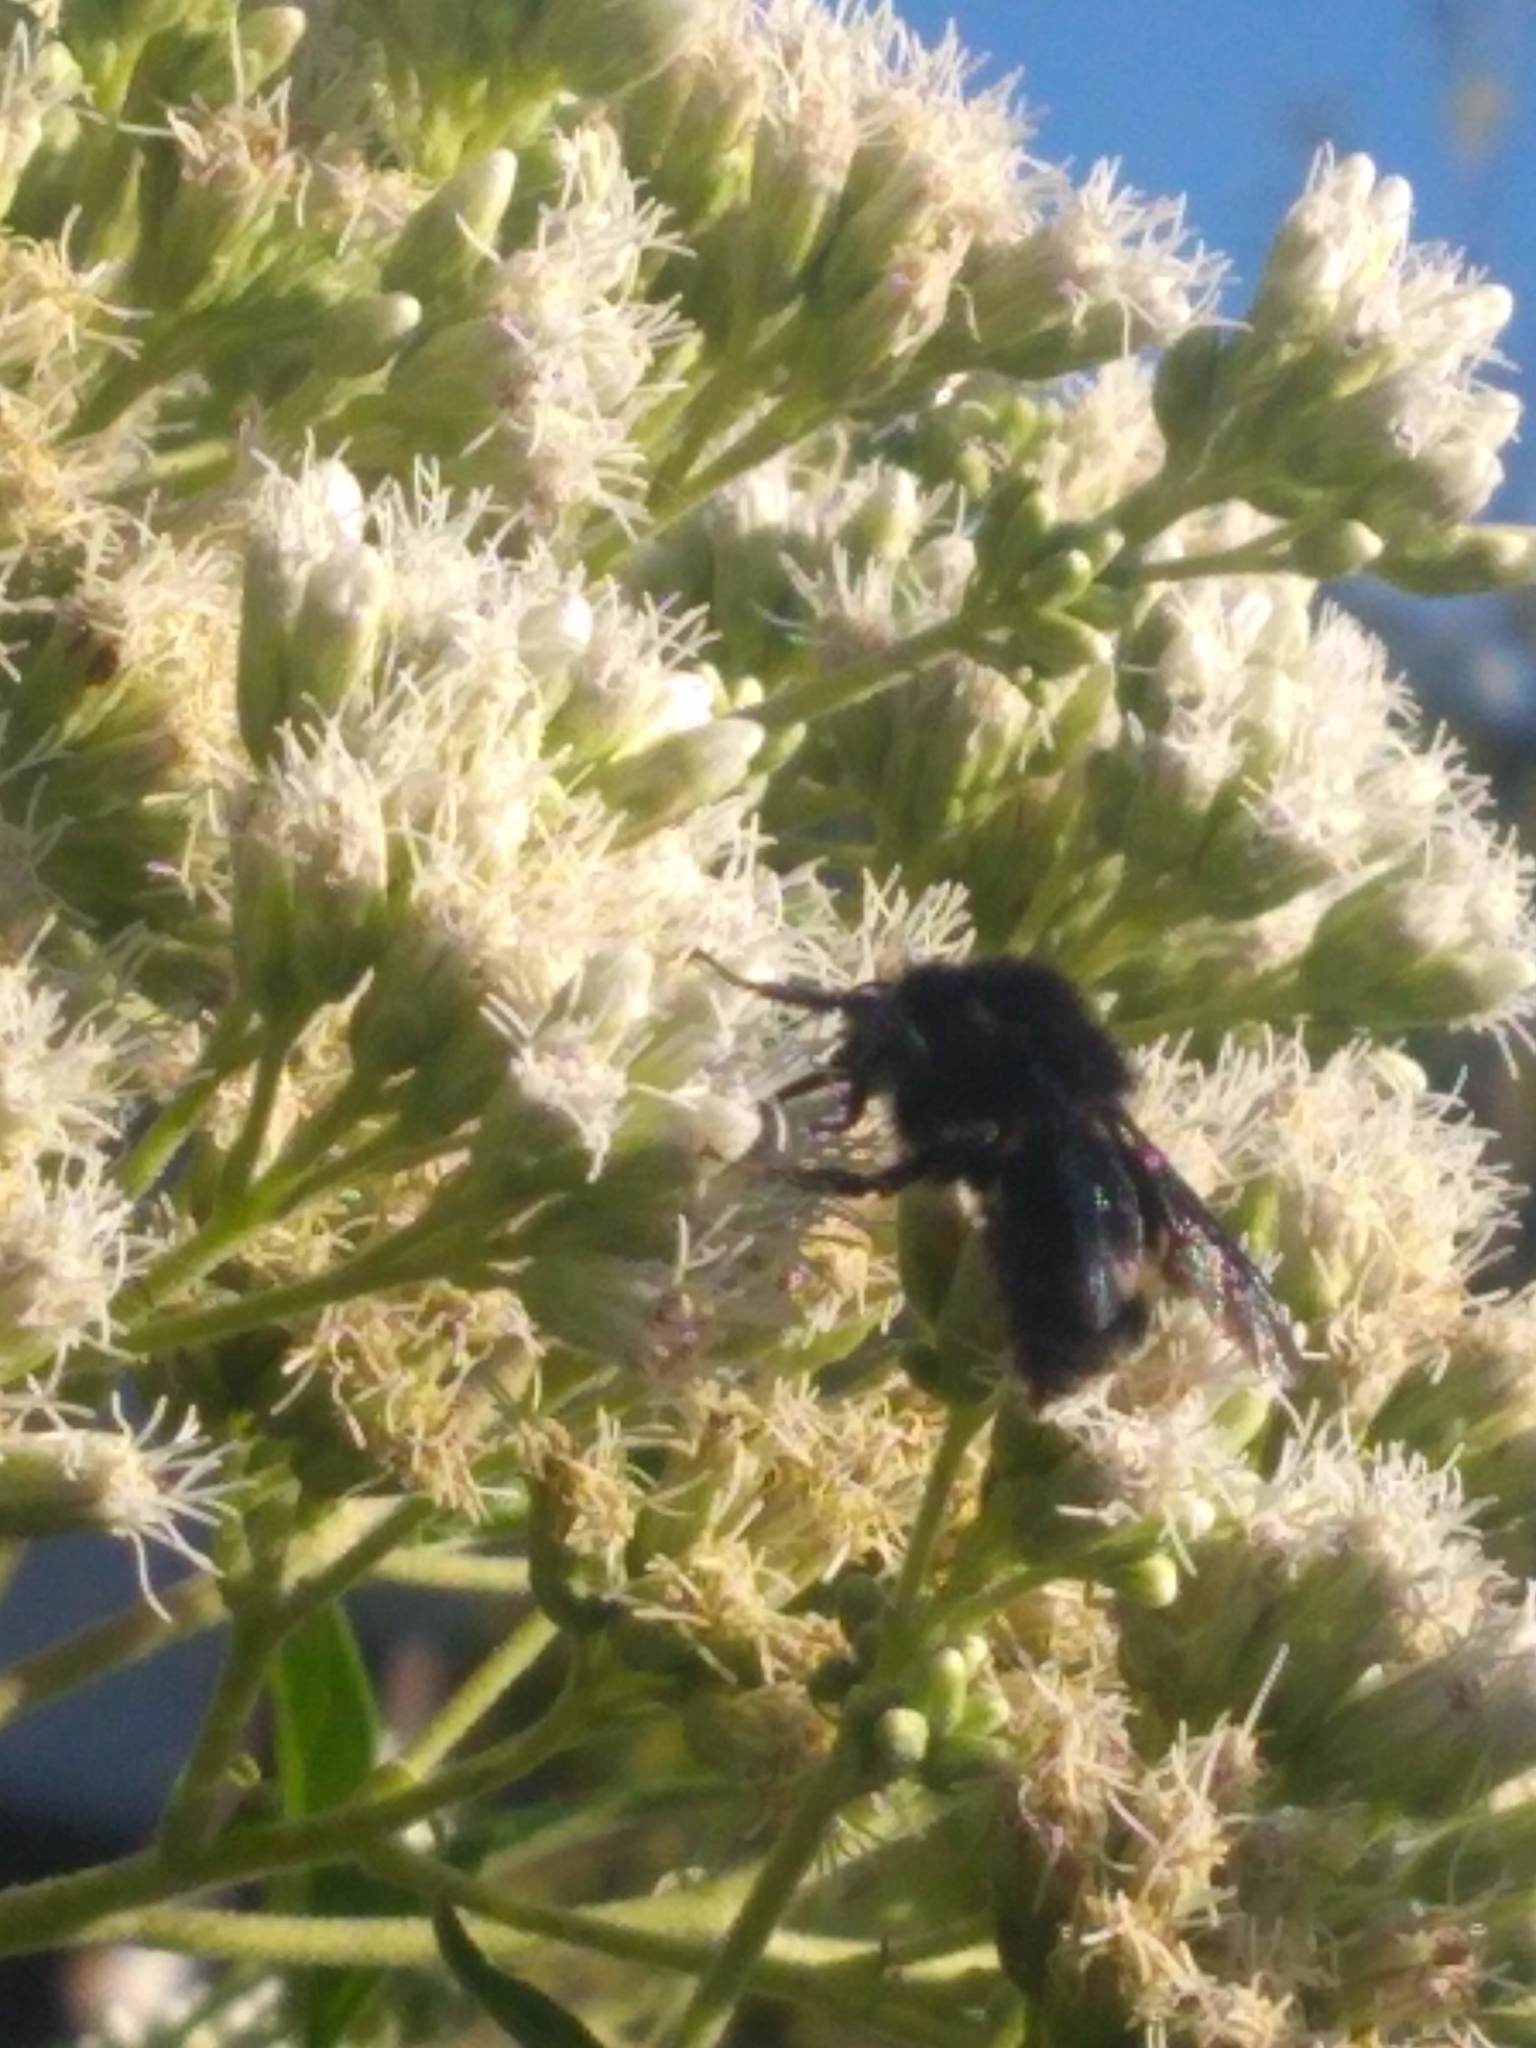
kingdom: Animalia
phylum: Arthropoda
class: Insecta
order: Hymenoptera
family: Apidae
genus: Bombus
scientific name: Bombus pauloensis
